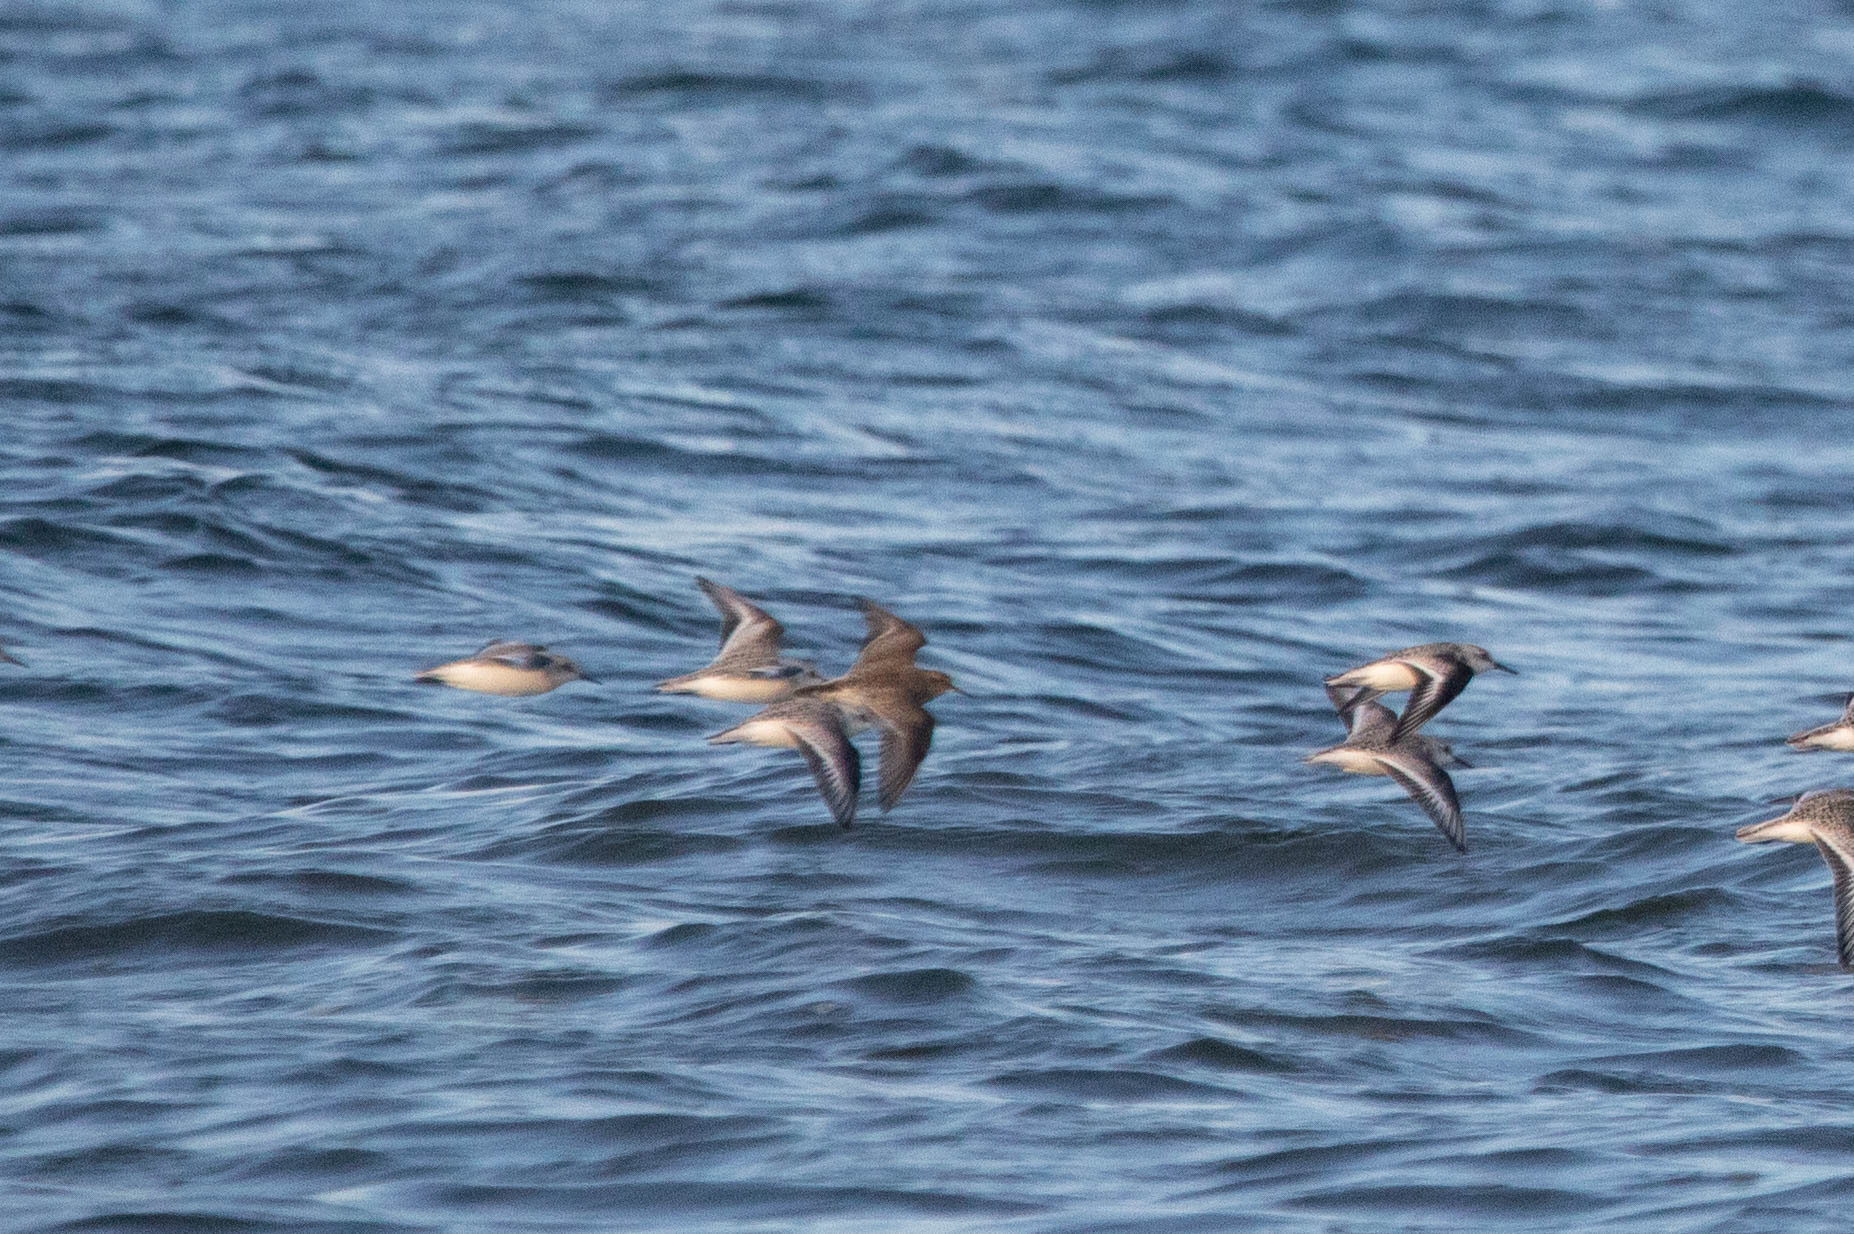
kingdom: Animalia
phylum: Chordata
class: Aves
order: Charadriiformes
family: Scolopacidae
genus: Calidris
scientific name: Calidris melanotos
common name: Pectoral sandpiper
